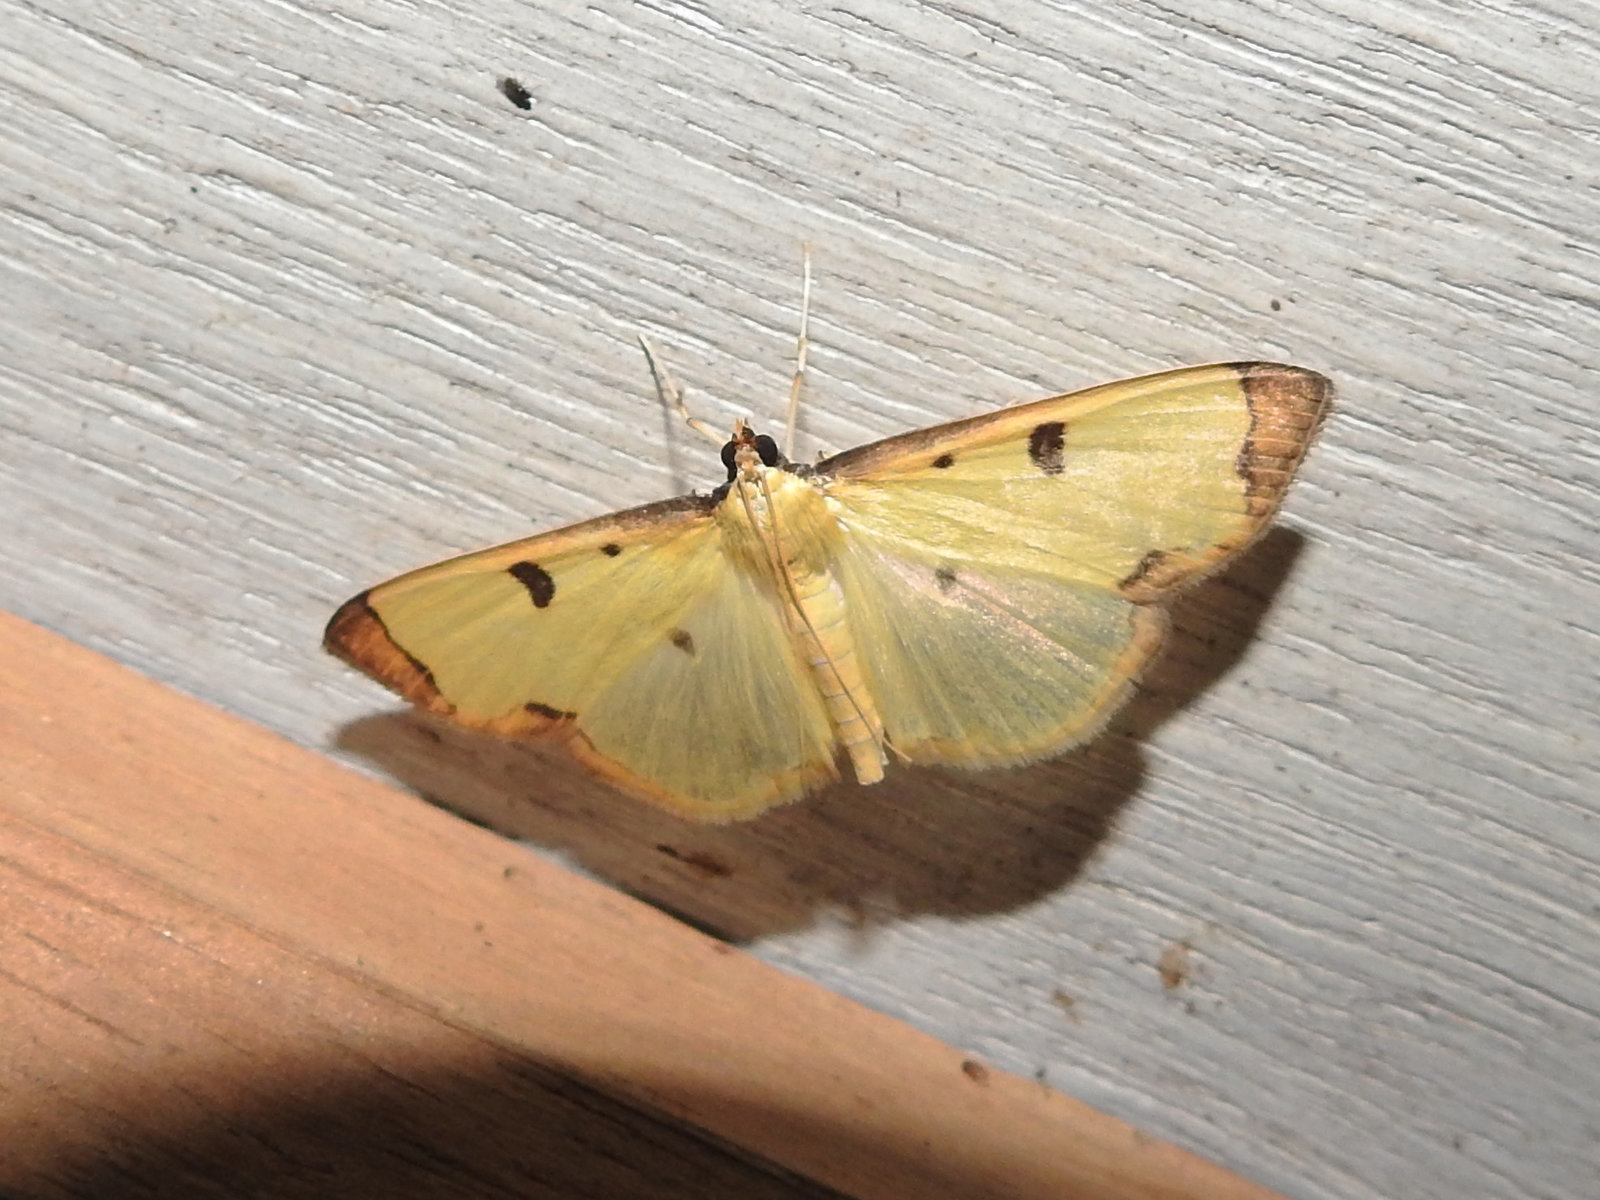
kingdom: Animalia
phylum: Arthropoda
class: Insecta
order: Lepidoptera
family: Pyralidae
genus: Uncobotyodes
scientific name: Uncobotyodes
